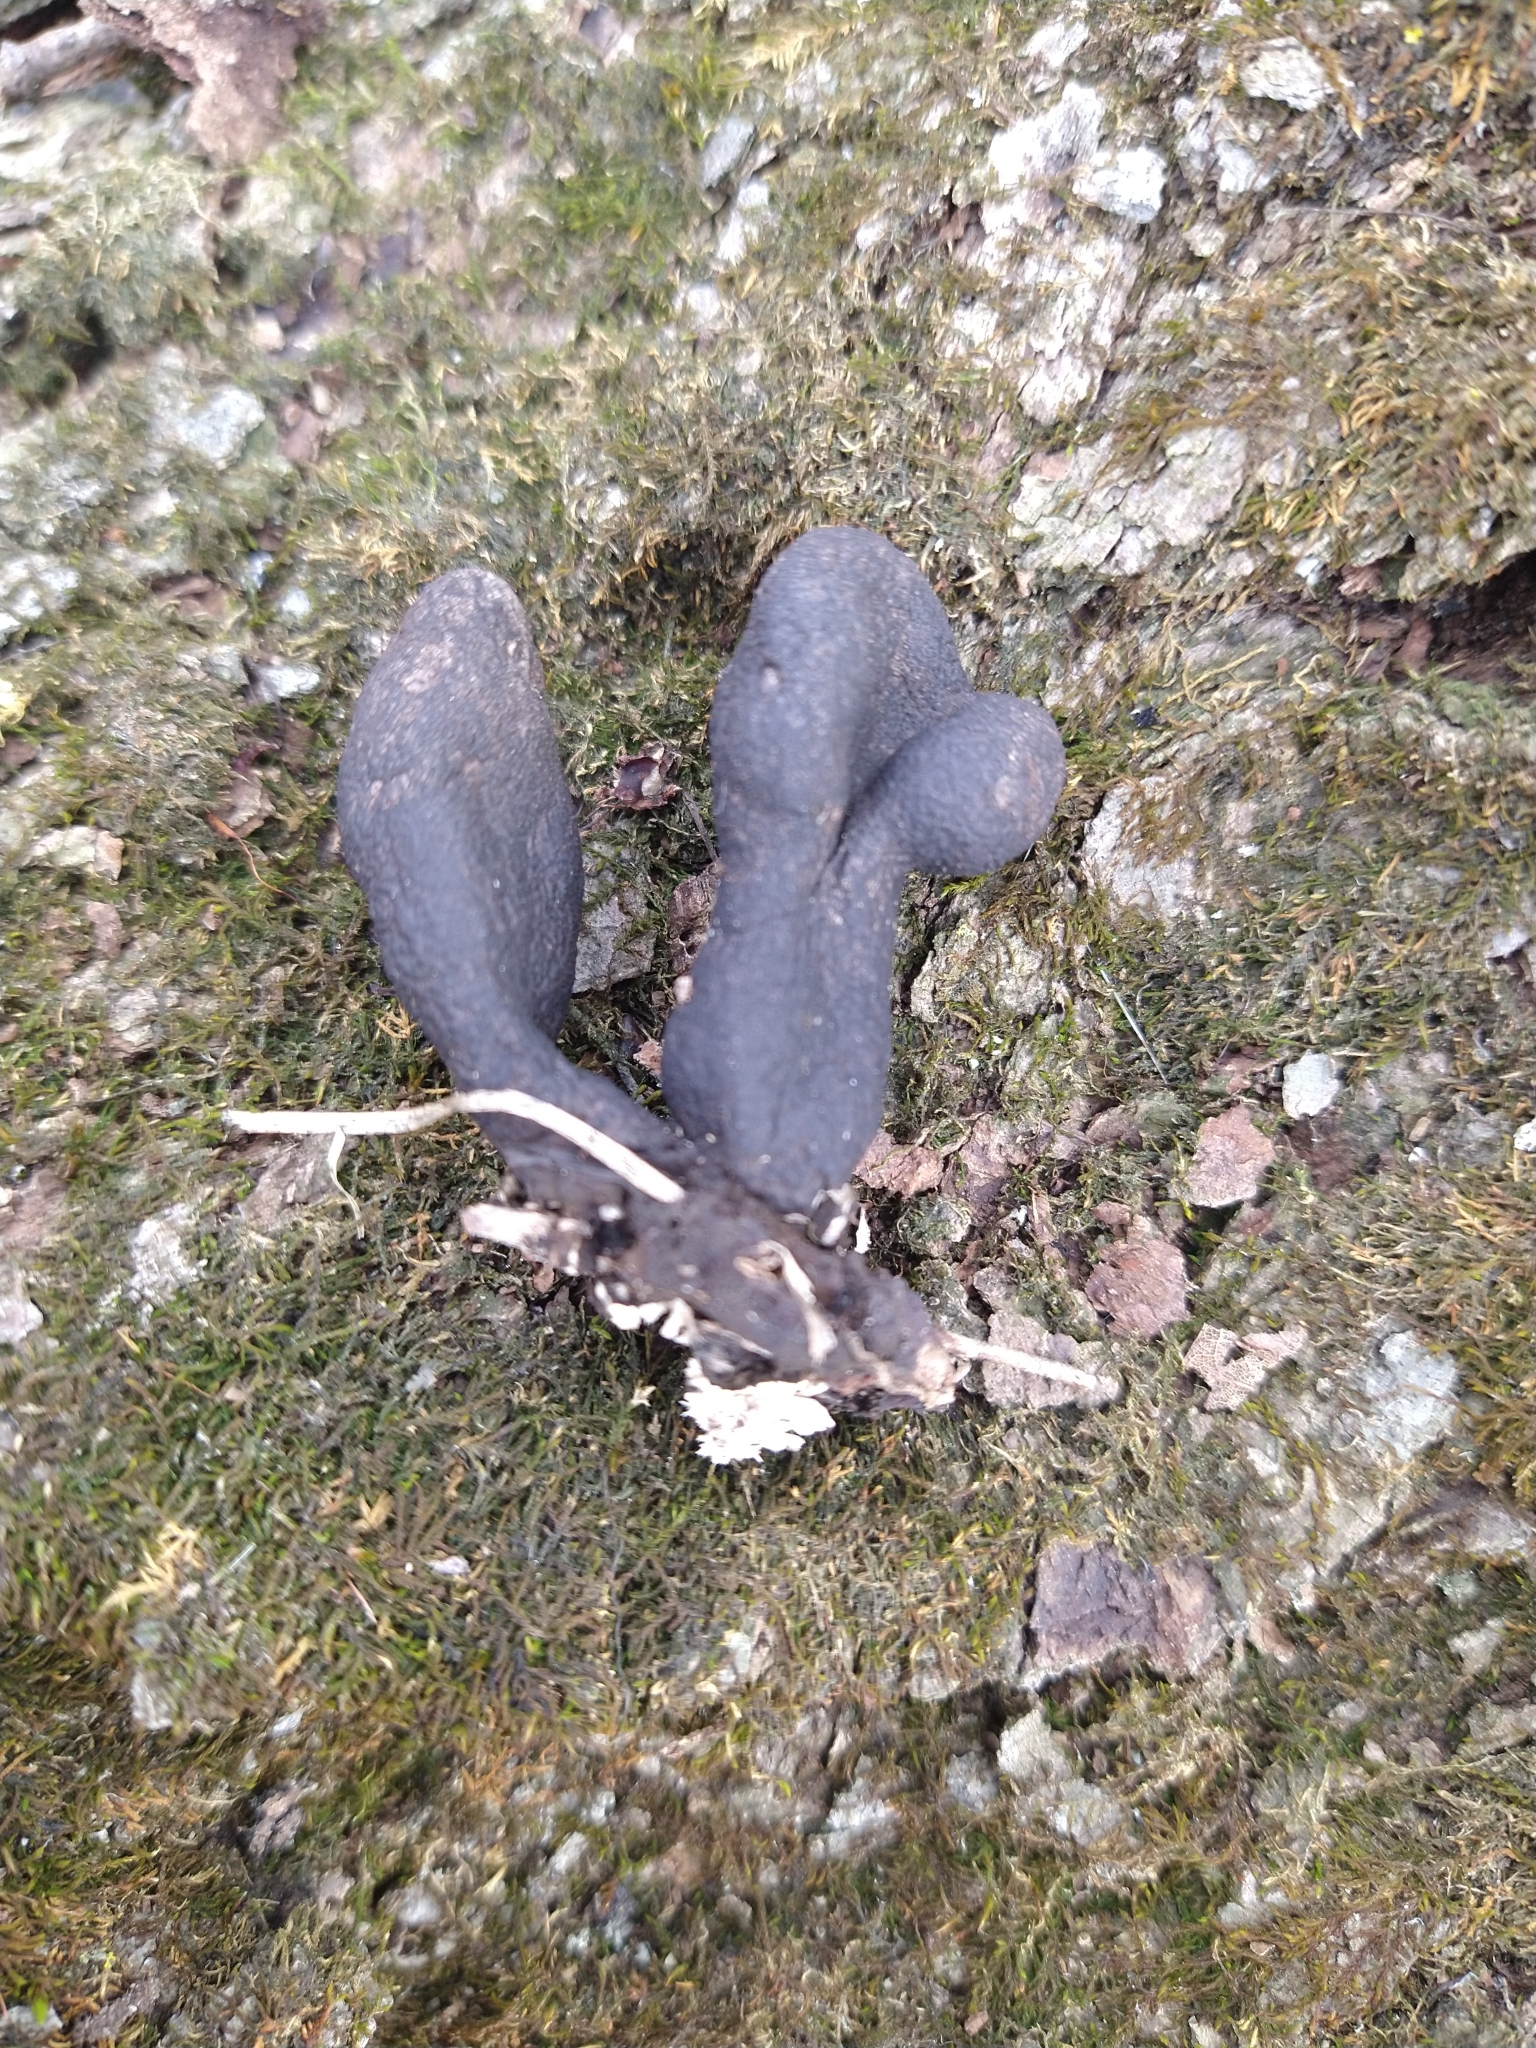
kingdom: Fungi
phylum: Ascomycota
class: Sordariomycetes
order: Xylariales
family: Xylariaceae
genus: Xylaria
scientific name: Xylaria longipes
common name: Dead moll's fingers
